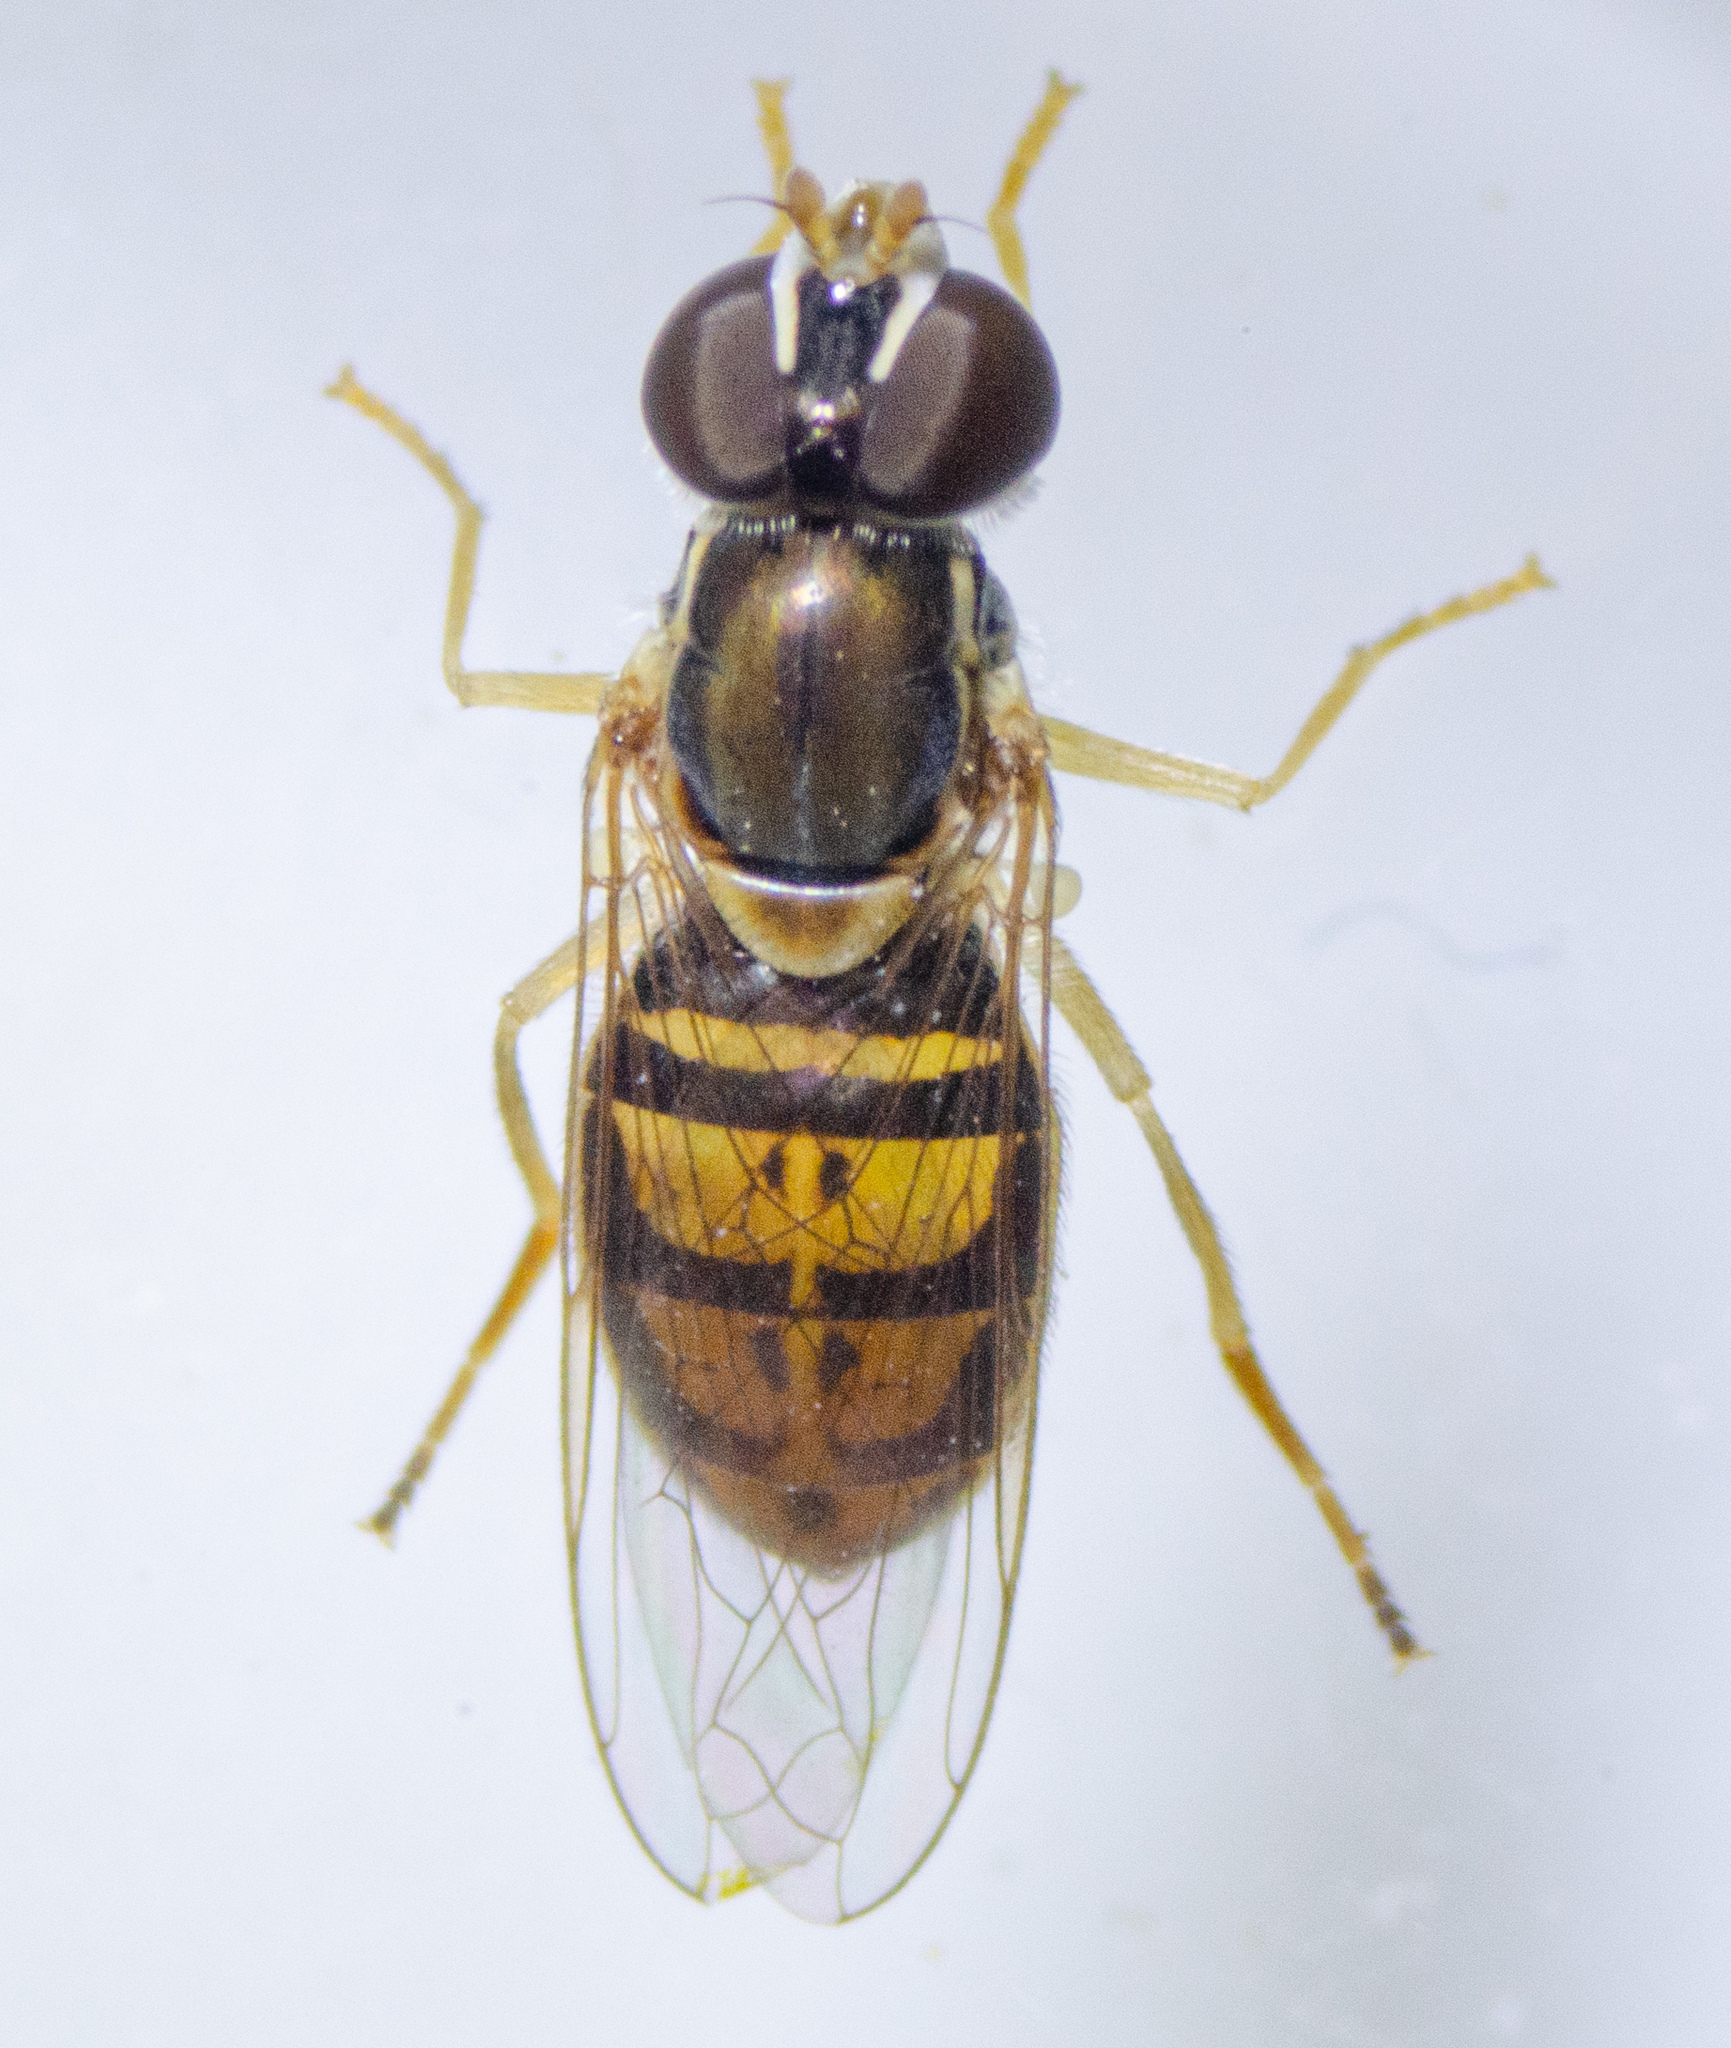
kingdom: Animalia
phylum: Arthropoda
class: Insecta
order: Diptera
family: Syrphidae
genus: Toxomerus
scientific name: Toxomerus marginatus
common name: Syrphid fly
